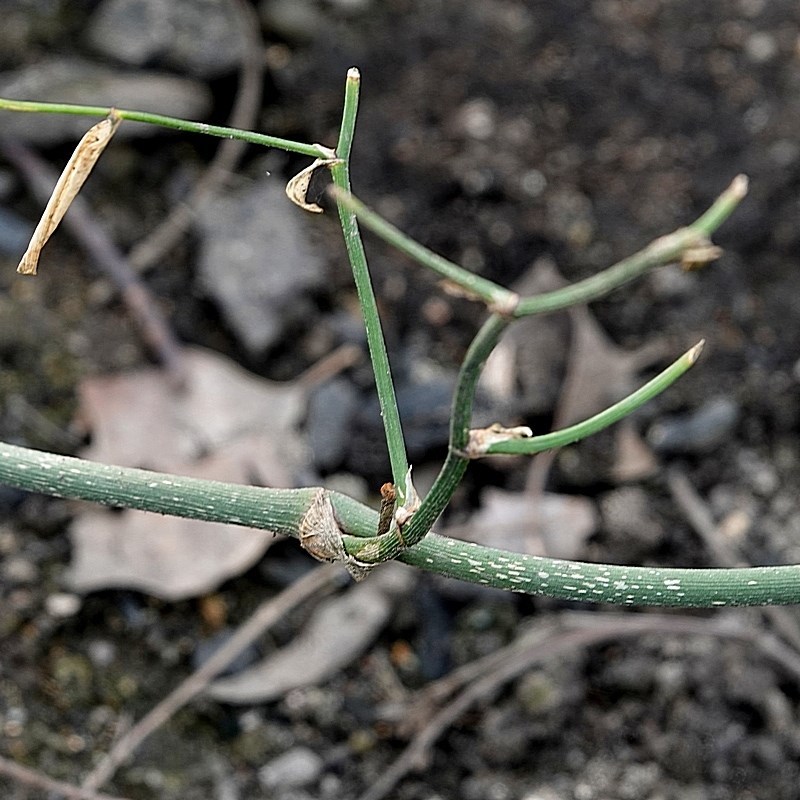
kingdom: Plantae
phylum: Tracheophyta
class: Liliopsida
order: Asparagales
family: Asparagaceae
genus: Eustrephus
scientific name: Eustrephus latifolius
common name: Orangevine
